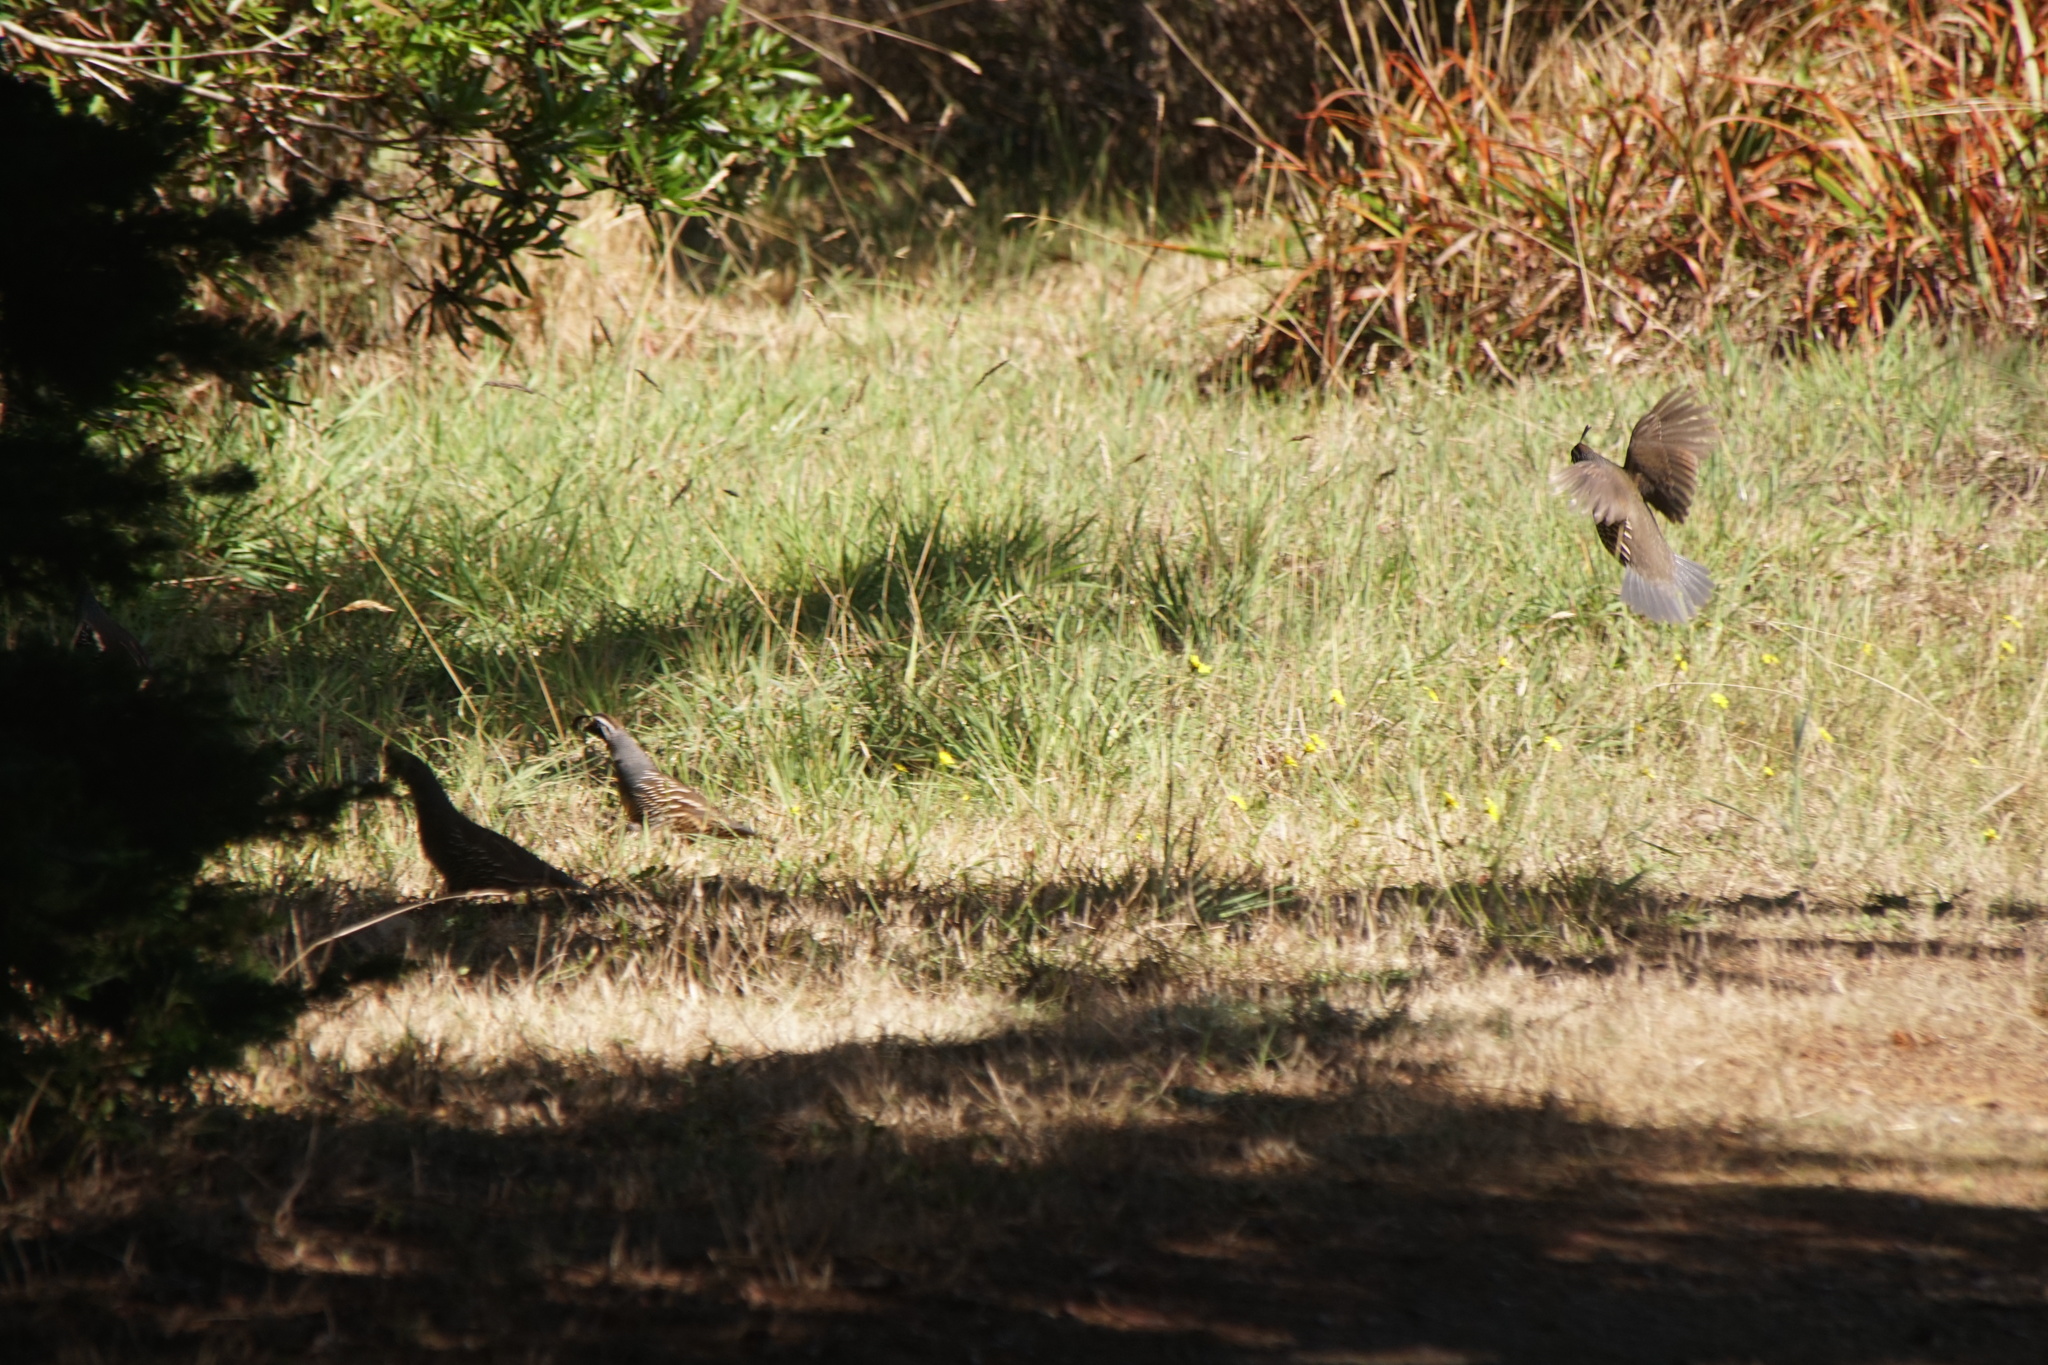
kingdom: Animalia
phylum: Chordata
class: Aves
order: Galliformes
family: Odontophoridae
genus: Callipepla
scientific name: Callipepla californica
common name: California quail
